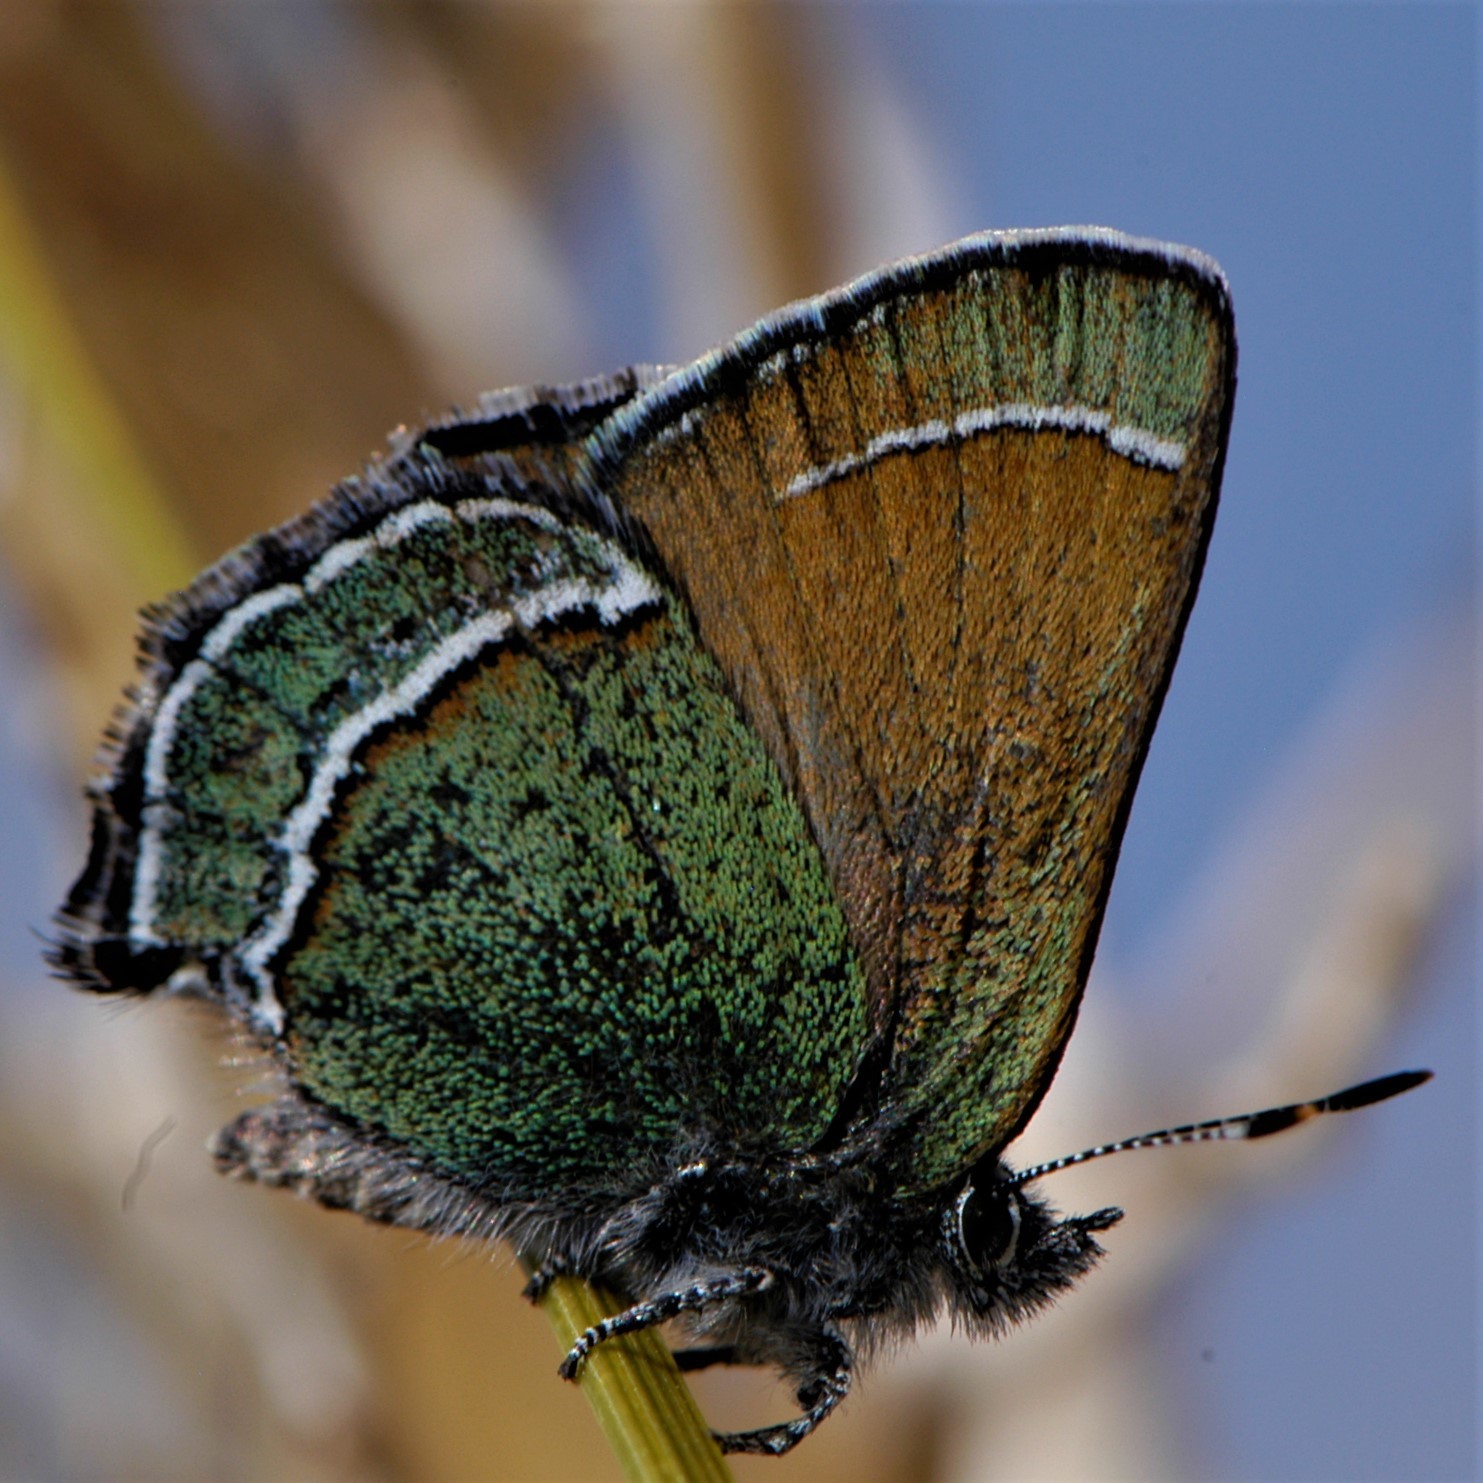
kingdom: Animalia
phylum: Arthropoda
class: Insecta
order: Lepidoptera
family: Lycaenidae
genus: Sandia
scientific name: Sandia mcfarlandi
